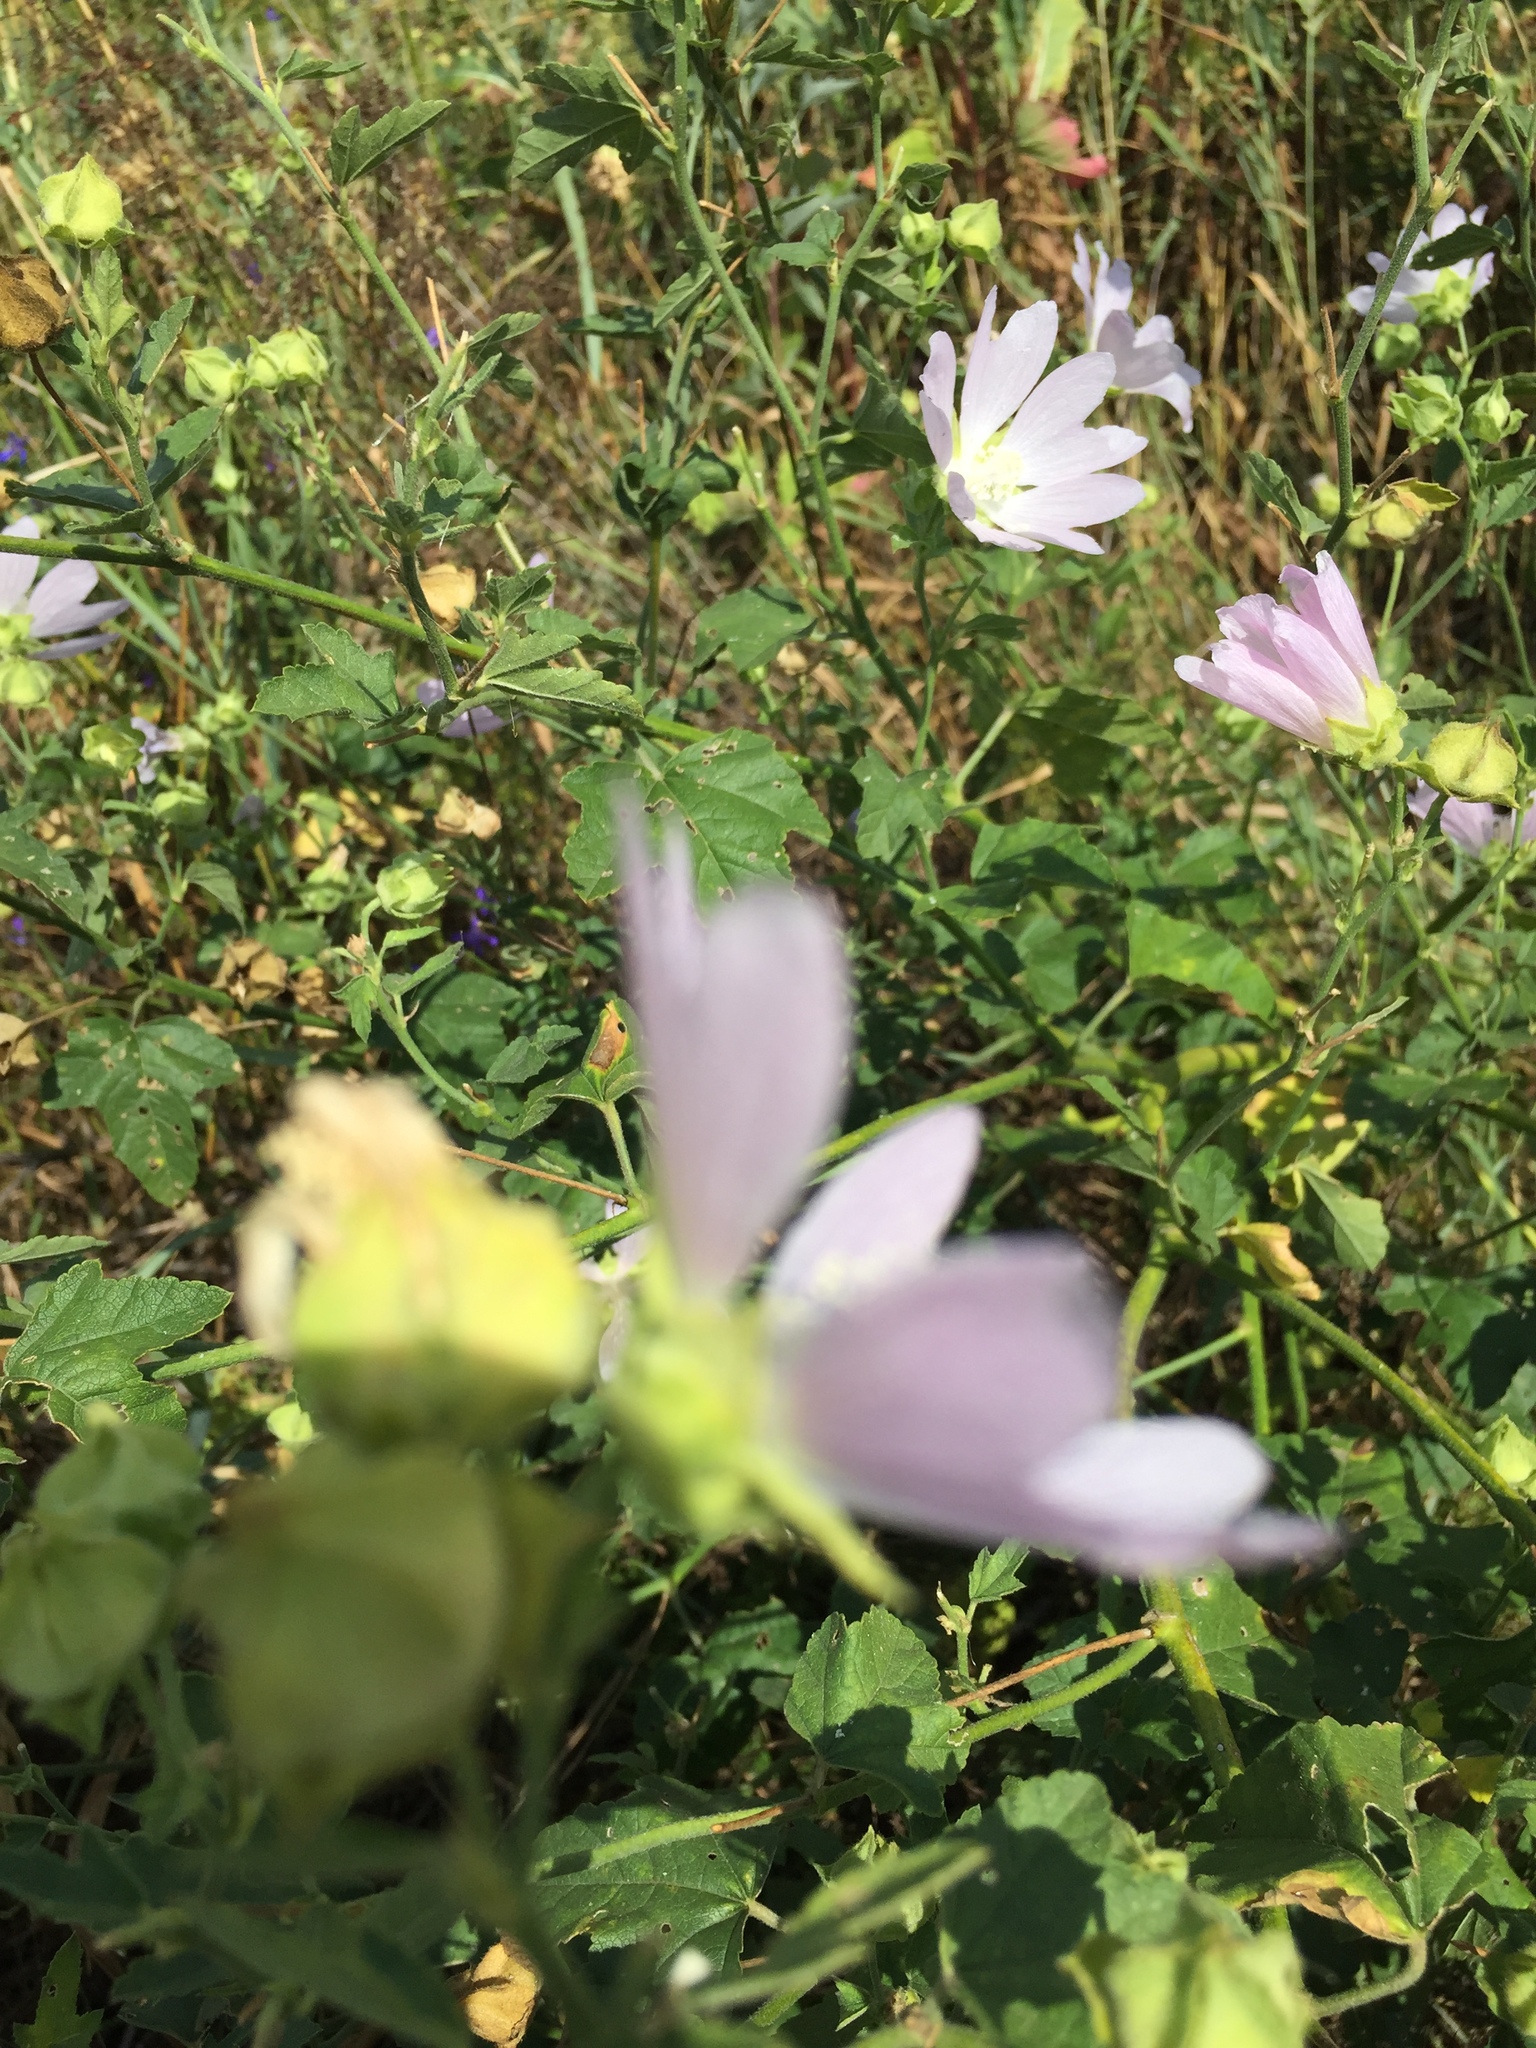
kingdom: Plantae
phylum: Tracheophyta
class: Magnoliopsida
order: Malvales
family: Malvaceae
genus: Malva
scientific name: Malva thuringiaca
